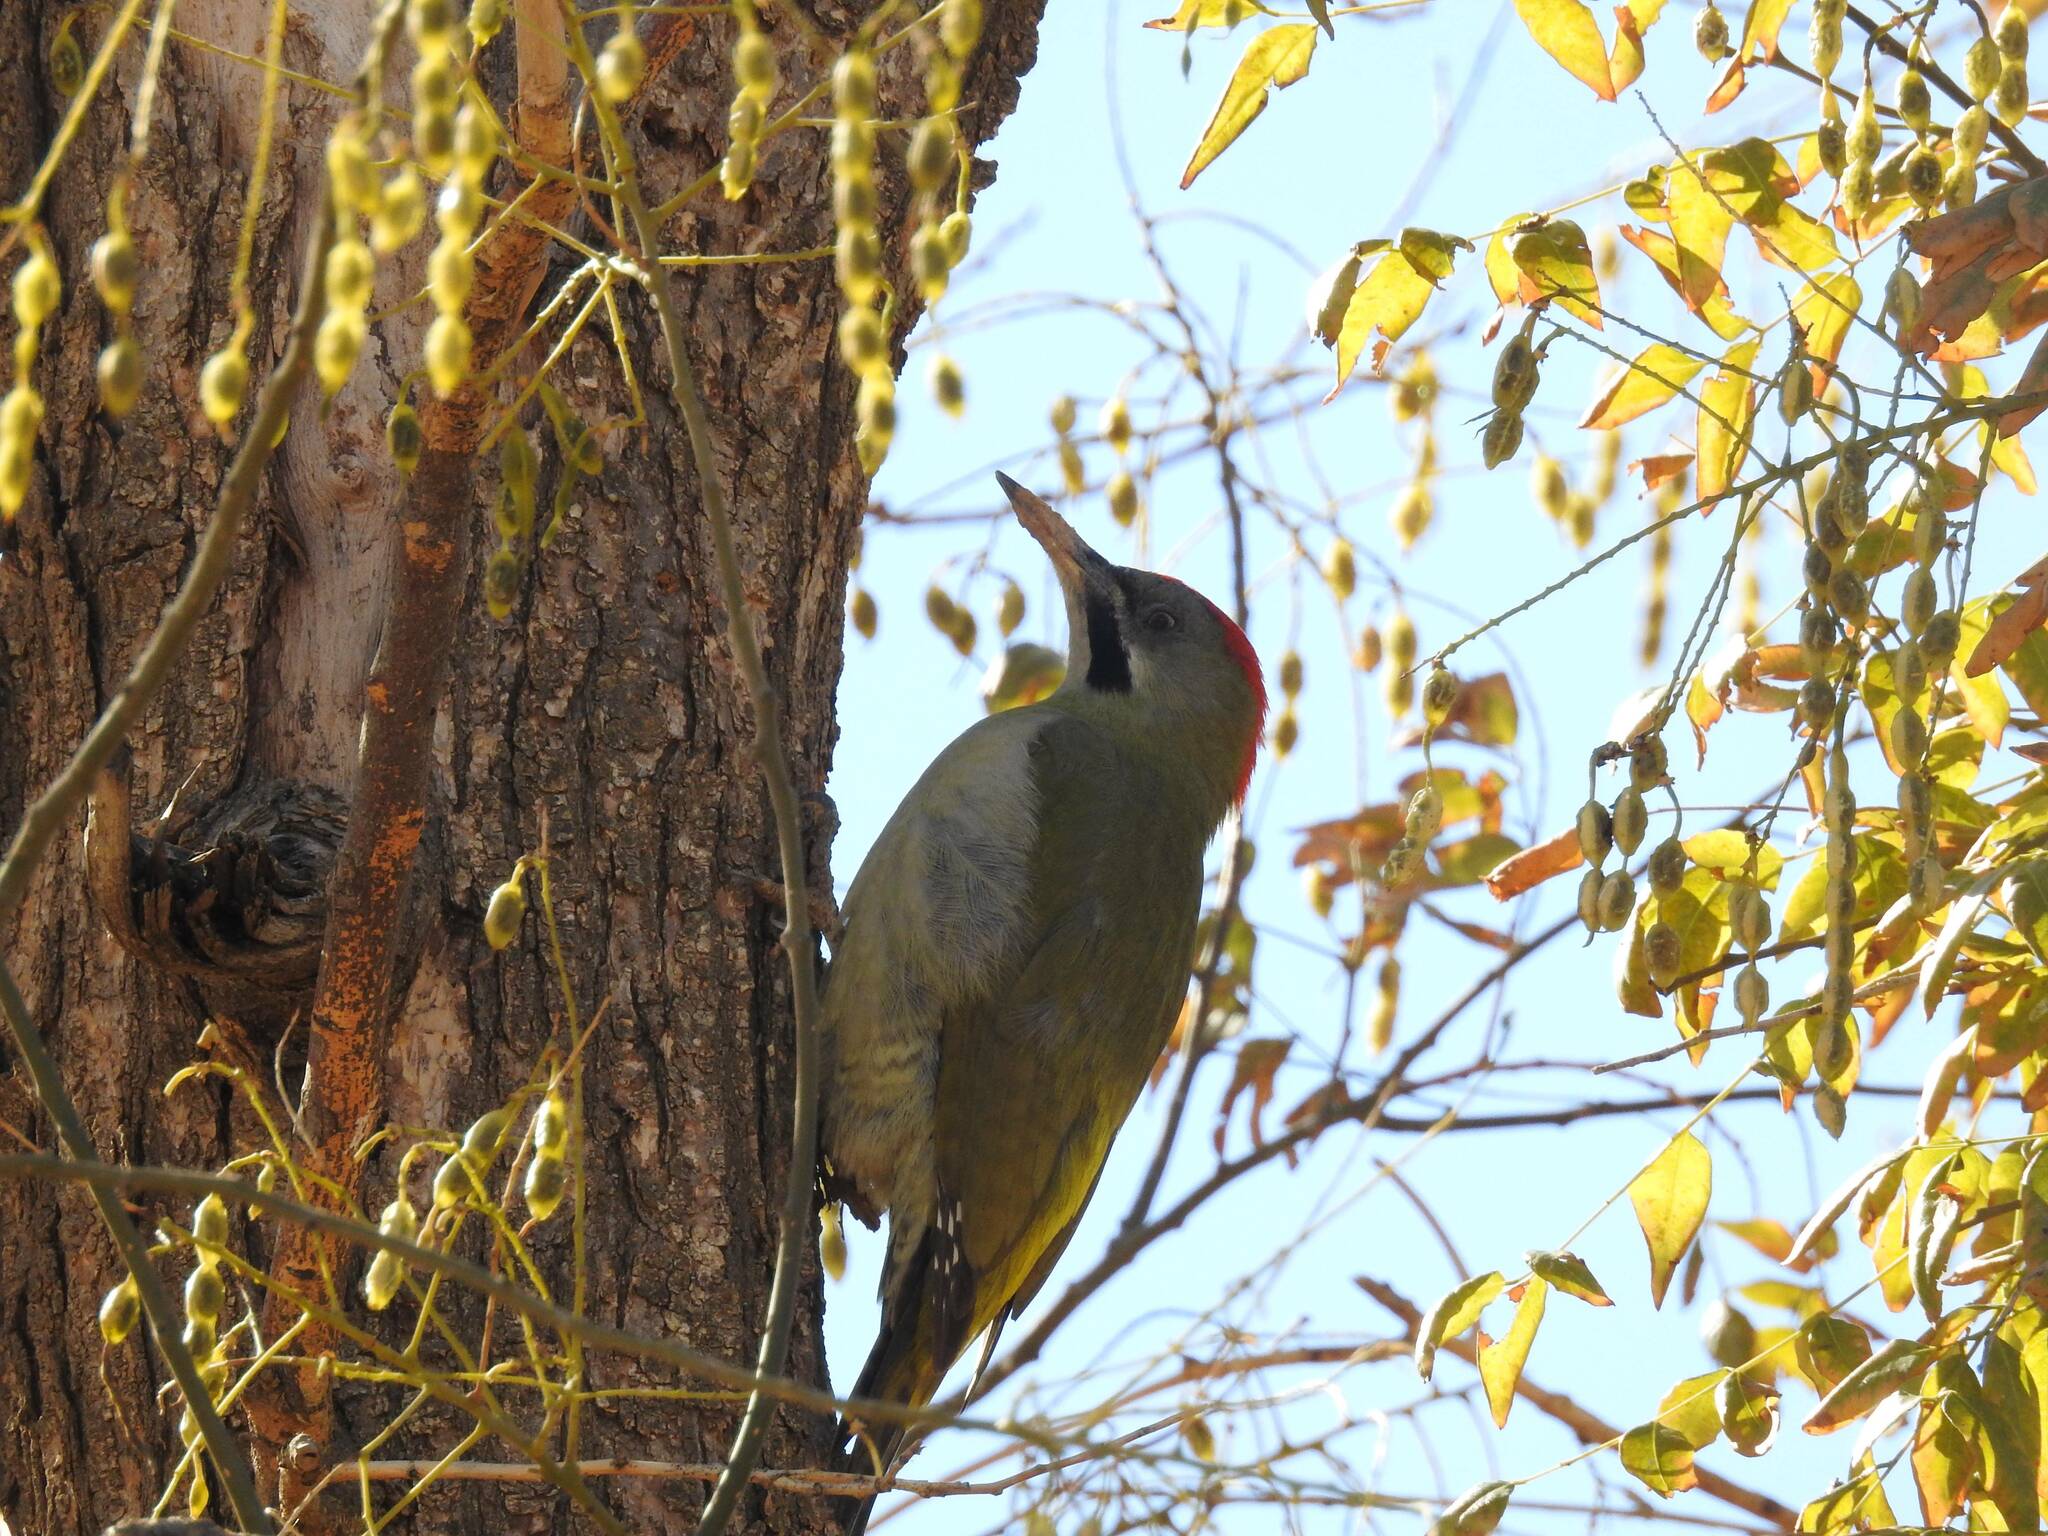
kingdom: Animalia
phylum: Chordata
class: Aves
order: Piciformes
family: Picidae
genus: Picus
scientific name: Picus vaillantii
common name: Levaillant's woodpecker
